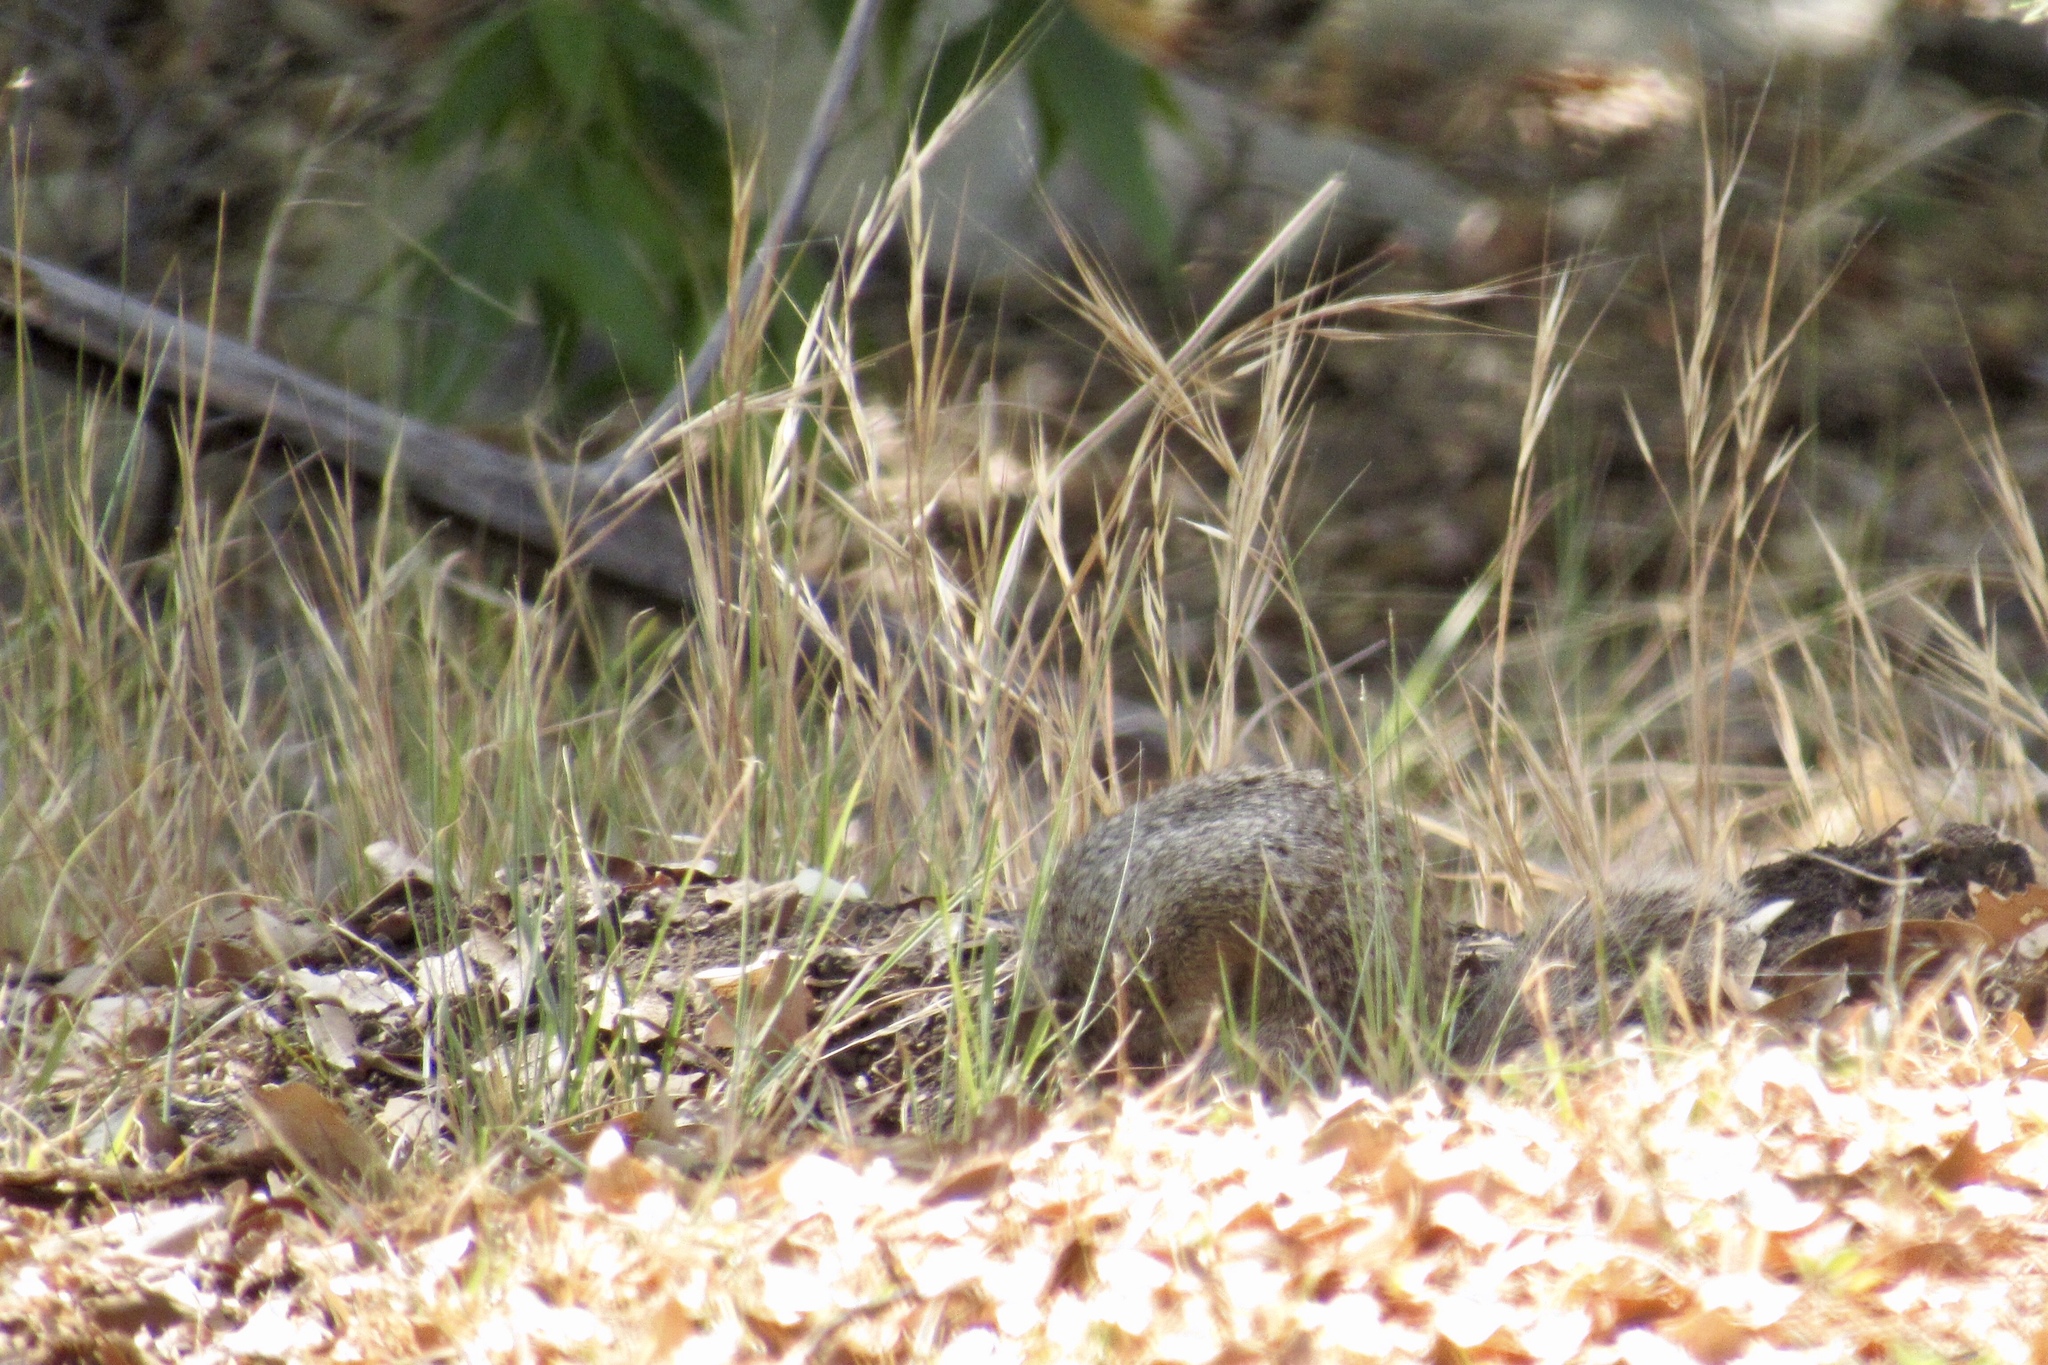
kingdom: Animalia
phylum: Chordata
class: Mammalia
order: Rodentia
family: Sciuridae
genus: Otospermophilus
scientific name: Otospermophilus variegatus
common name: Rock squirrel
